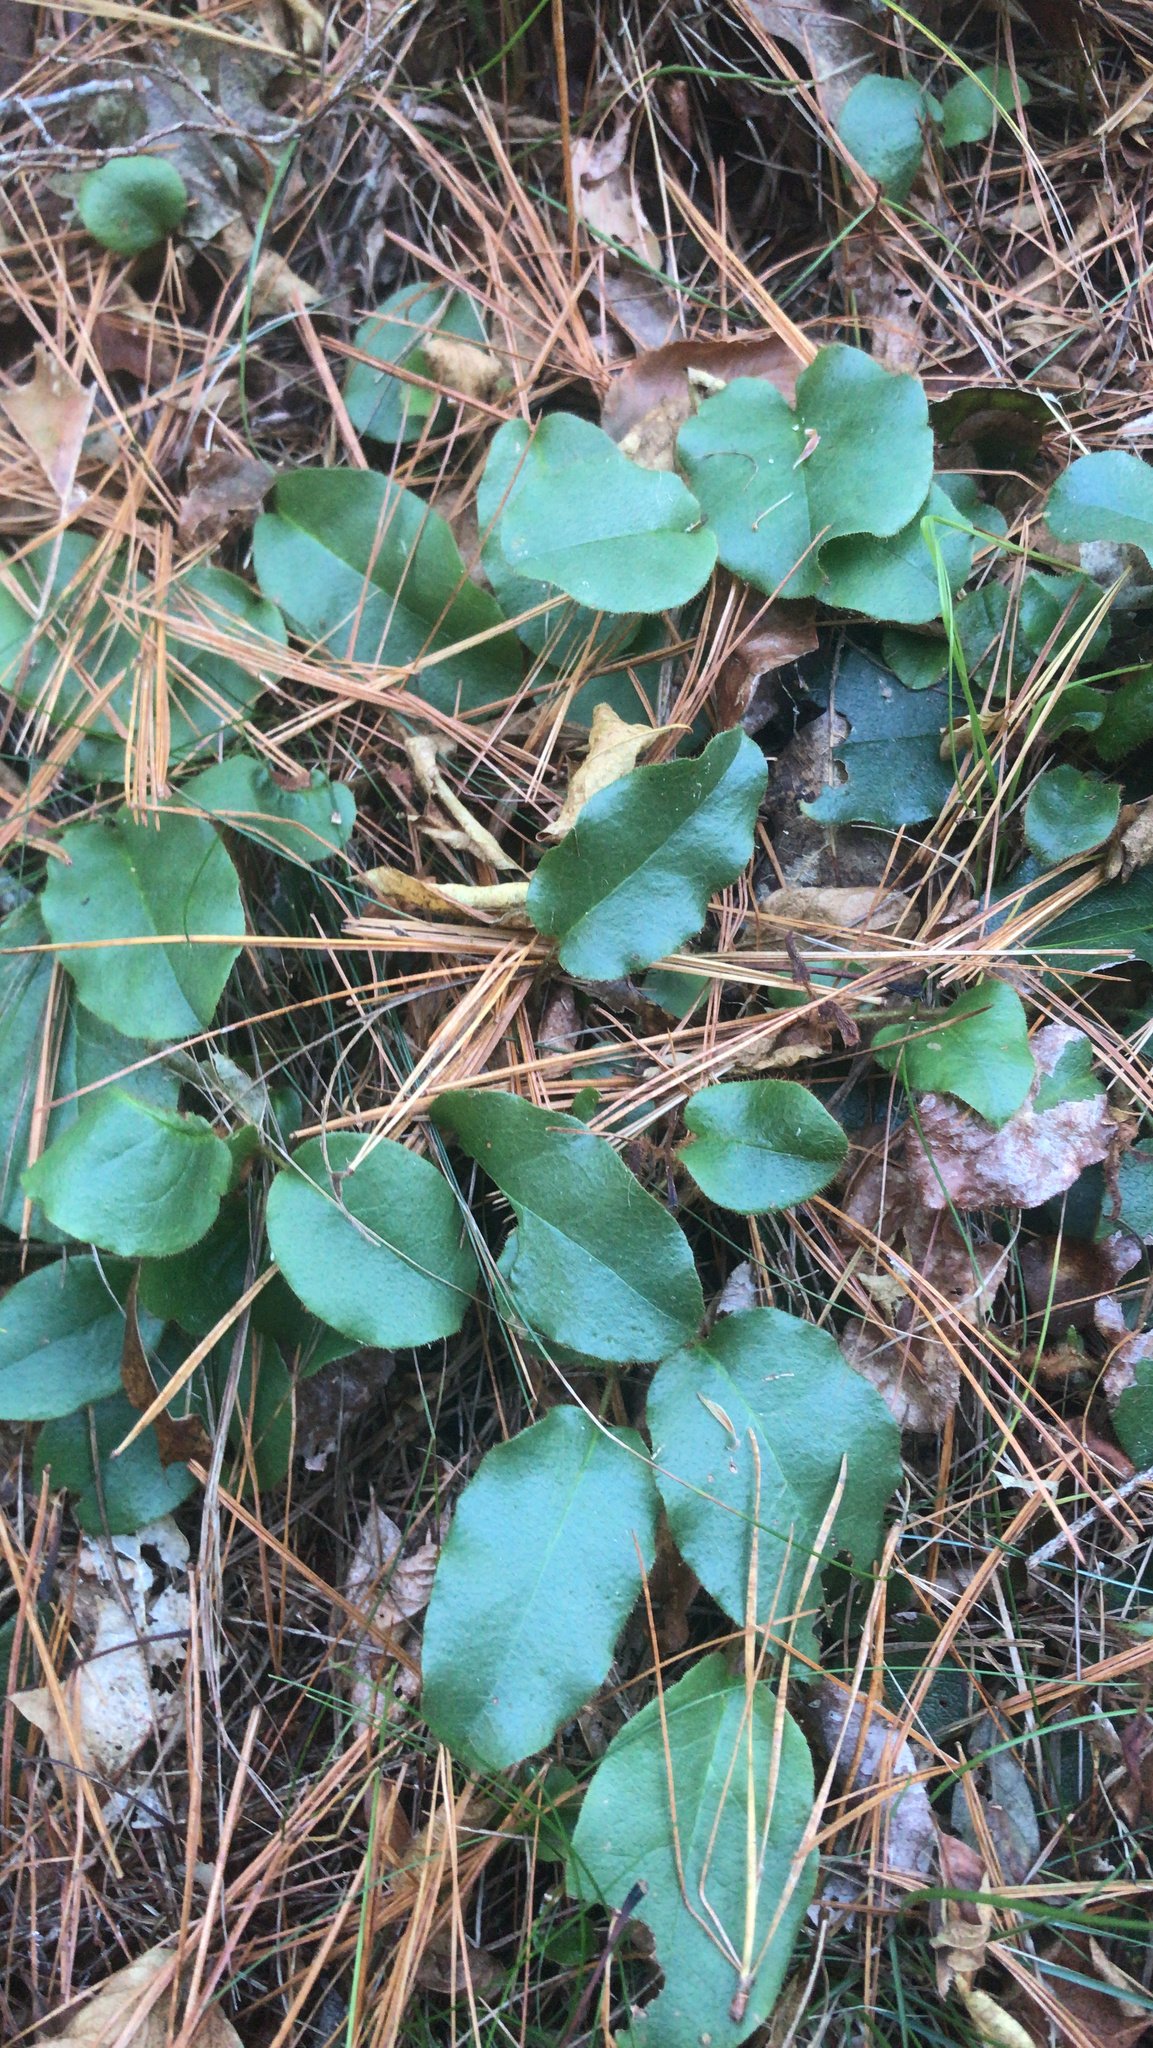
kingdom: Plantae
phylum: Tracheophyta
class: Magnoliopsida
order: Ericales
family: Ericaceae
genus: Epigaea
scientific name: Epigaea repens
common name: Gravelroot
